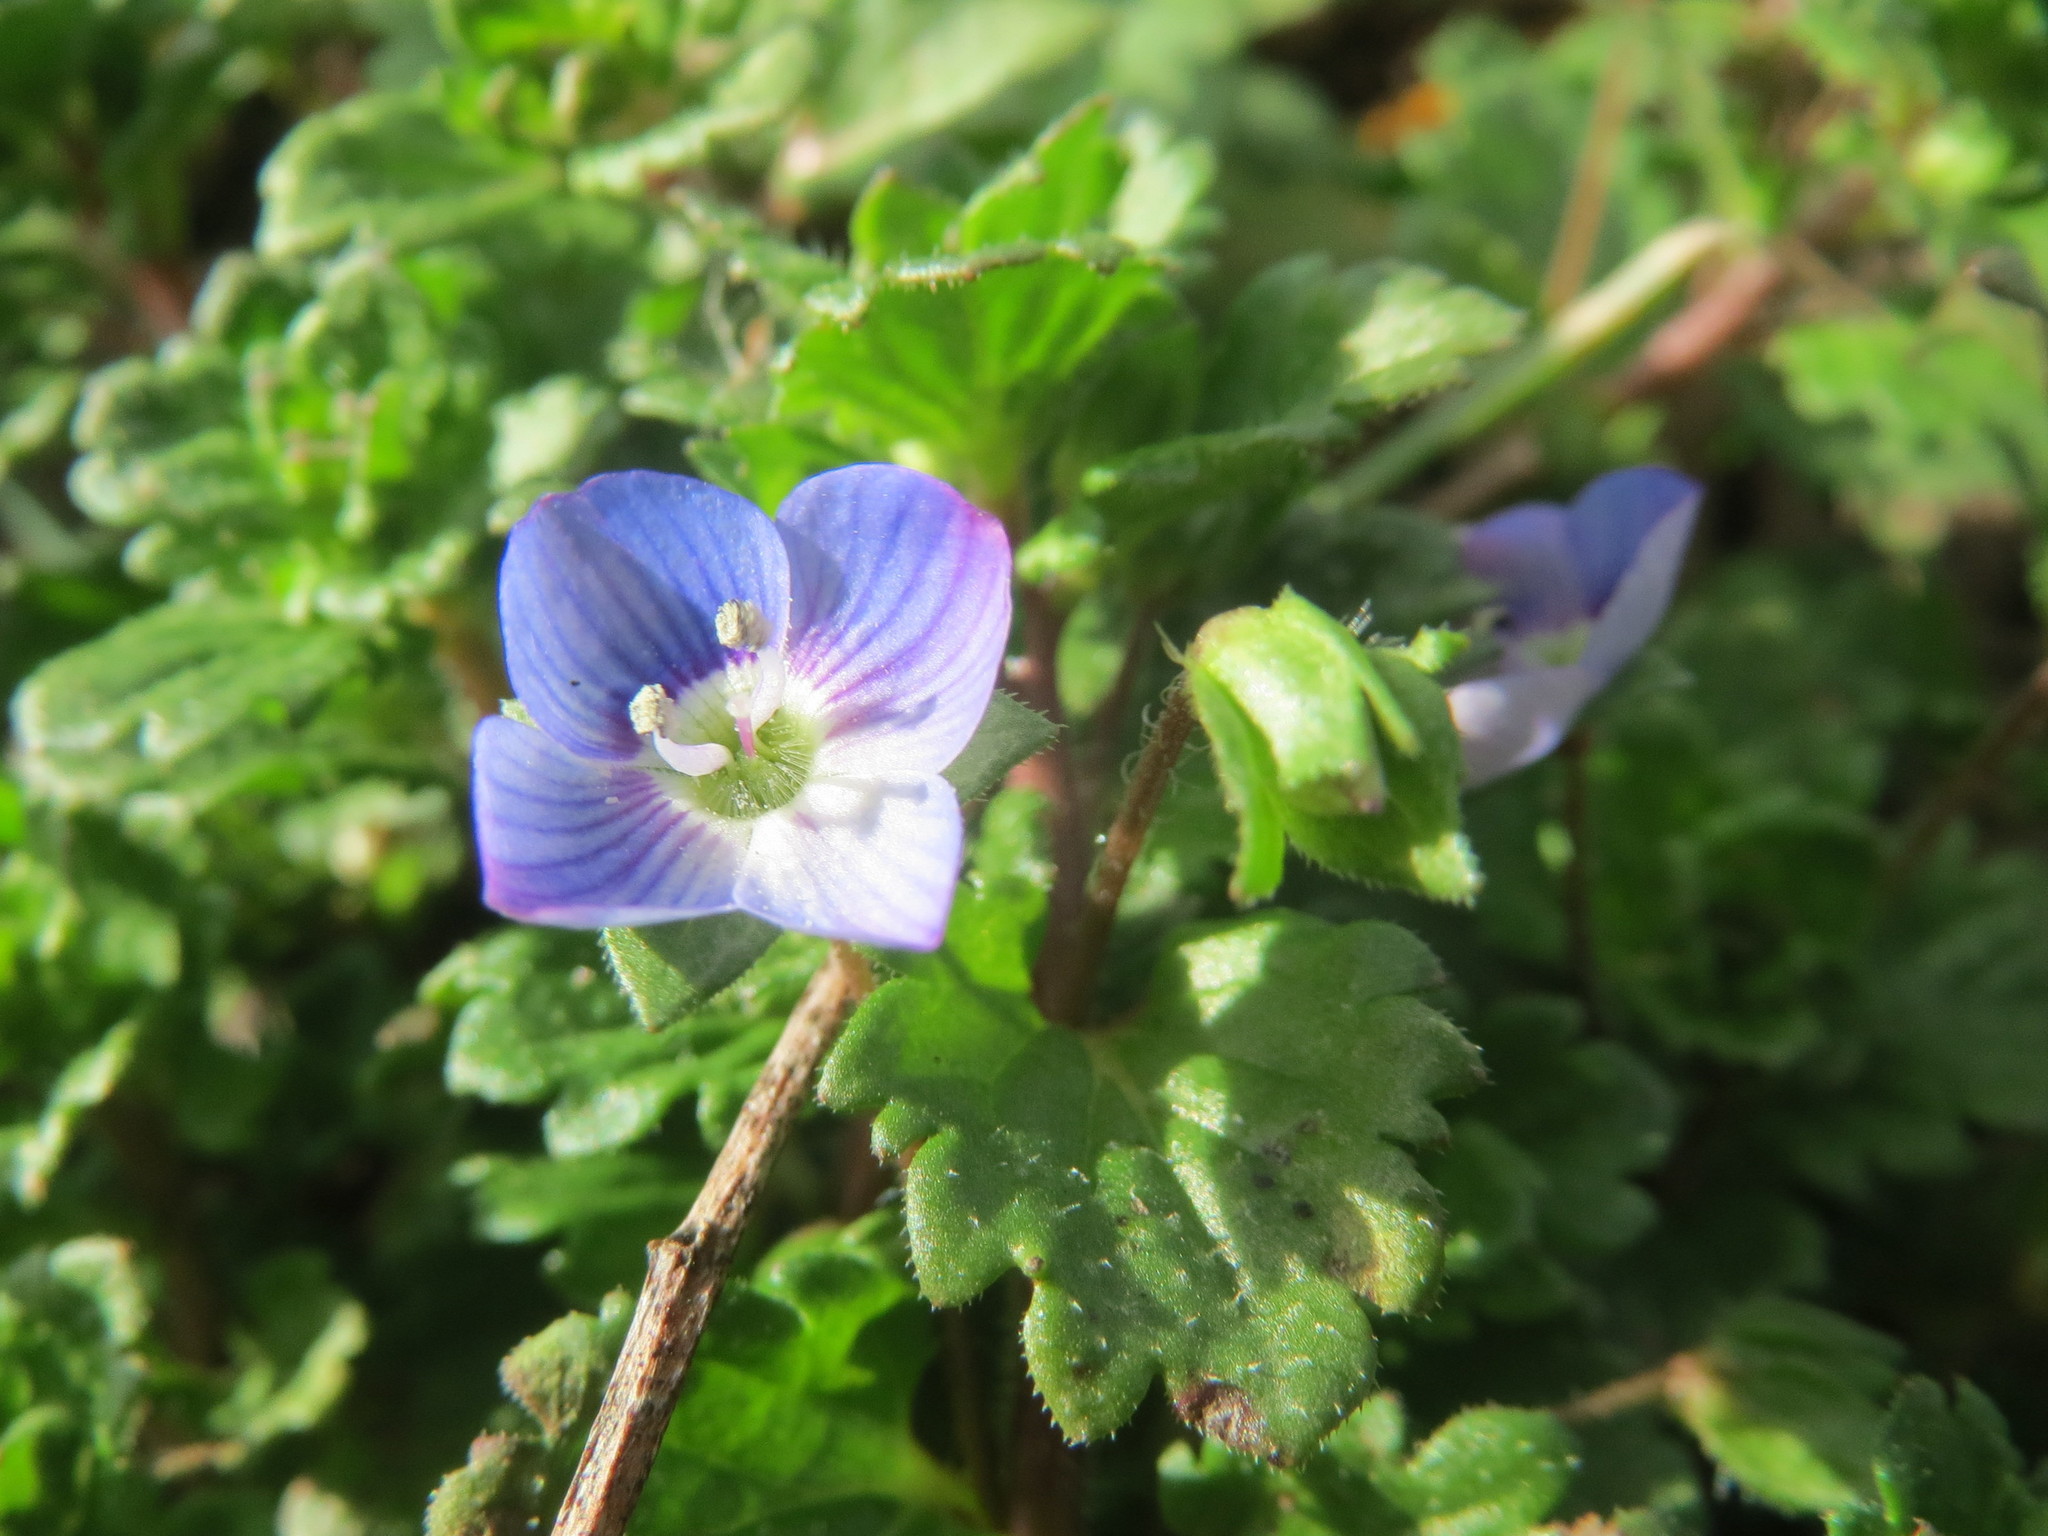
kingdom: Plantae
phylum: Tracheophyta
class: Magnoliopsida
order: Lamiales
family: Plantaginaceae
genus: Veronica
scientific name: Veronica persica
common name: Common field-speedwell
